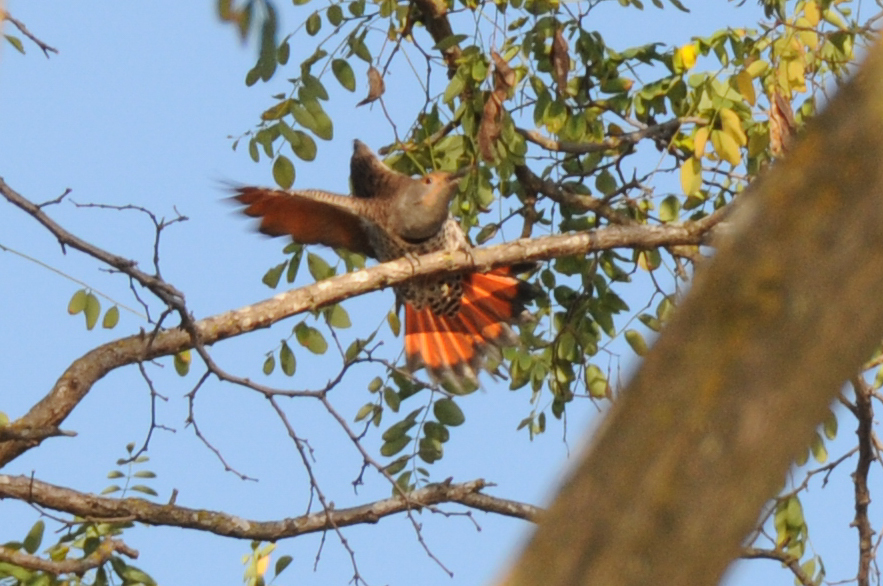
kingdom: Animalia
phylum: Chordata
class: Aves
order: Piciformes
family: Picidae
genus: Colaptes
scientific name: Colaptes auratus
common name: Northern flicker
